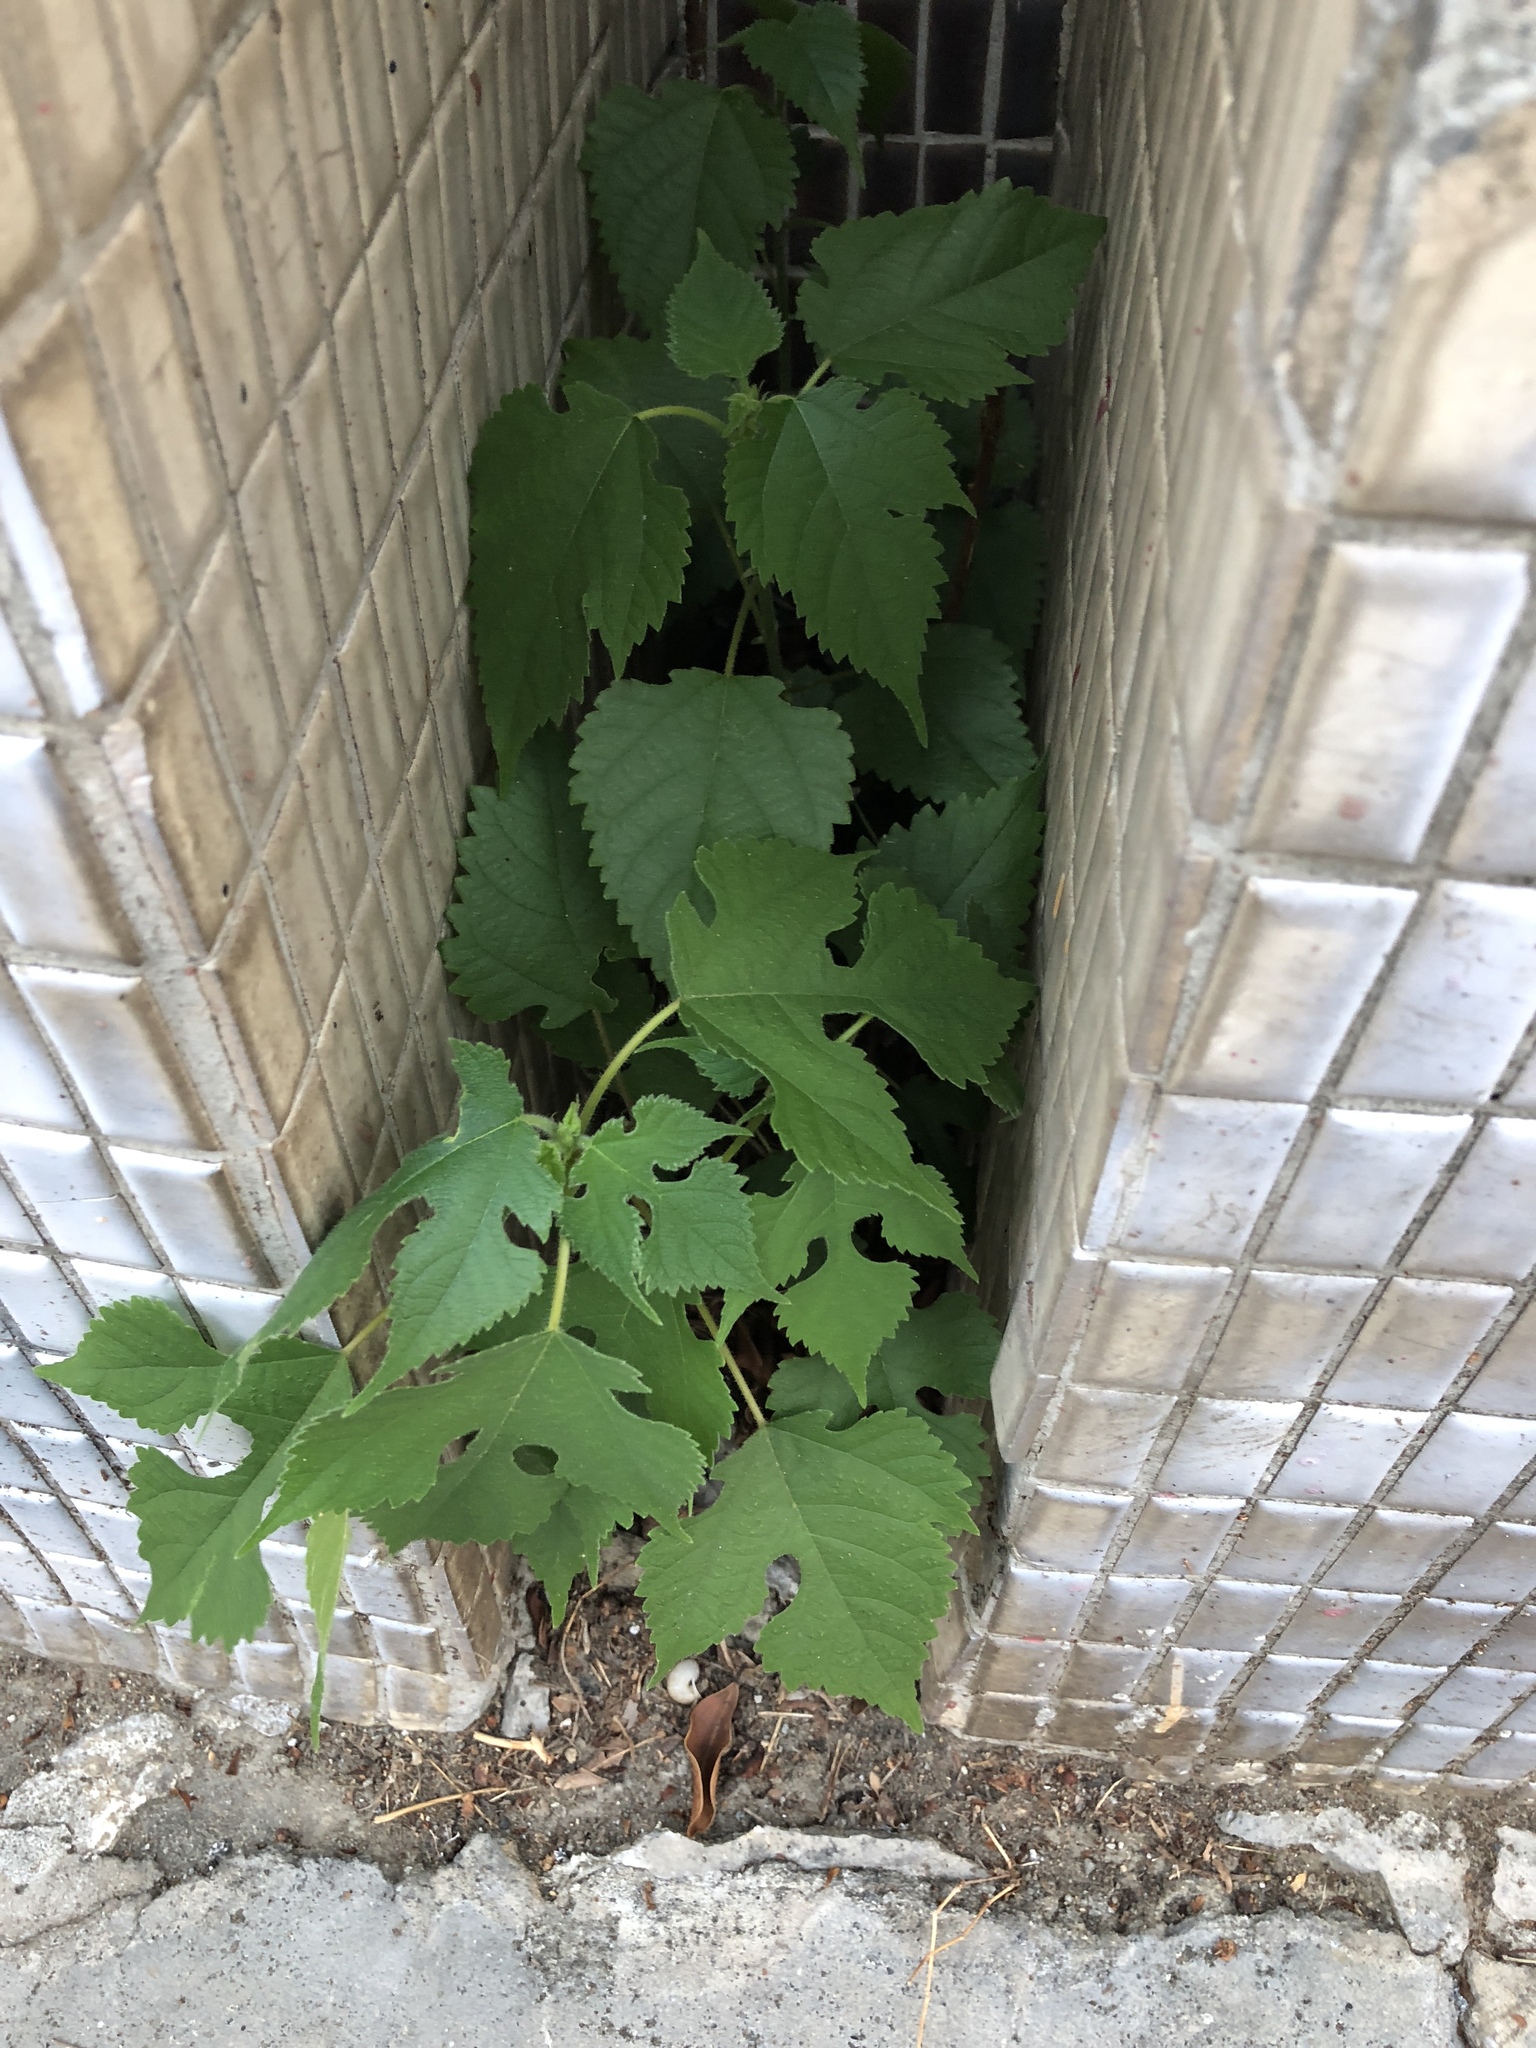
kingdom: Plantae
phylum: Tracheophyta
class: Magnoliopsida
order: Rosales
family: Moraceae
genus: Broussonetia
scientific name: Broussonetia papyrifera
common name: Paper mulberry
